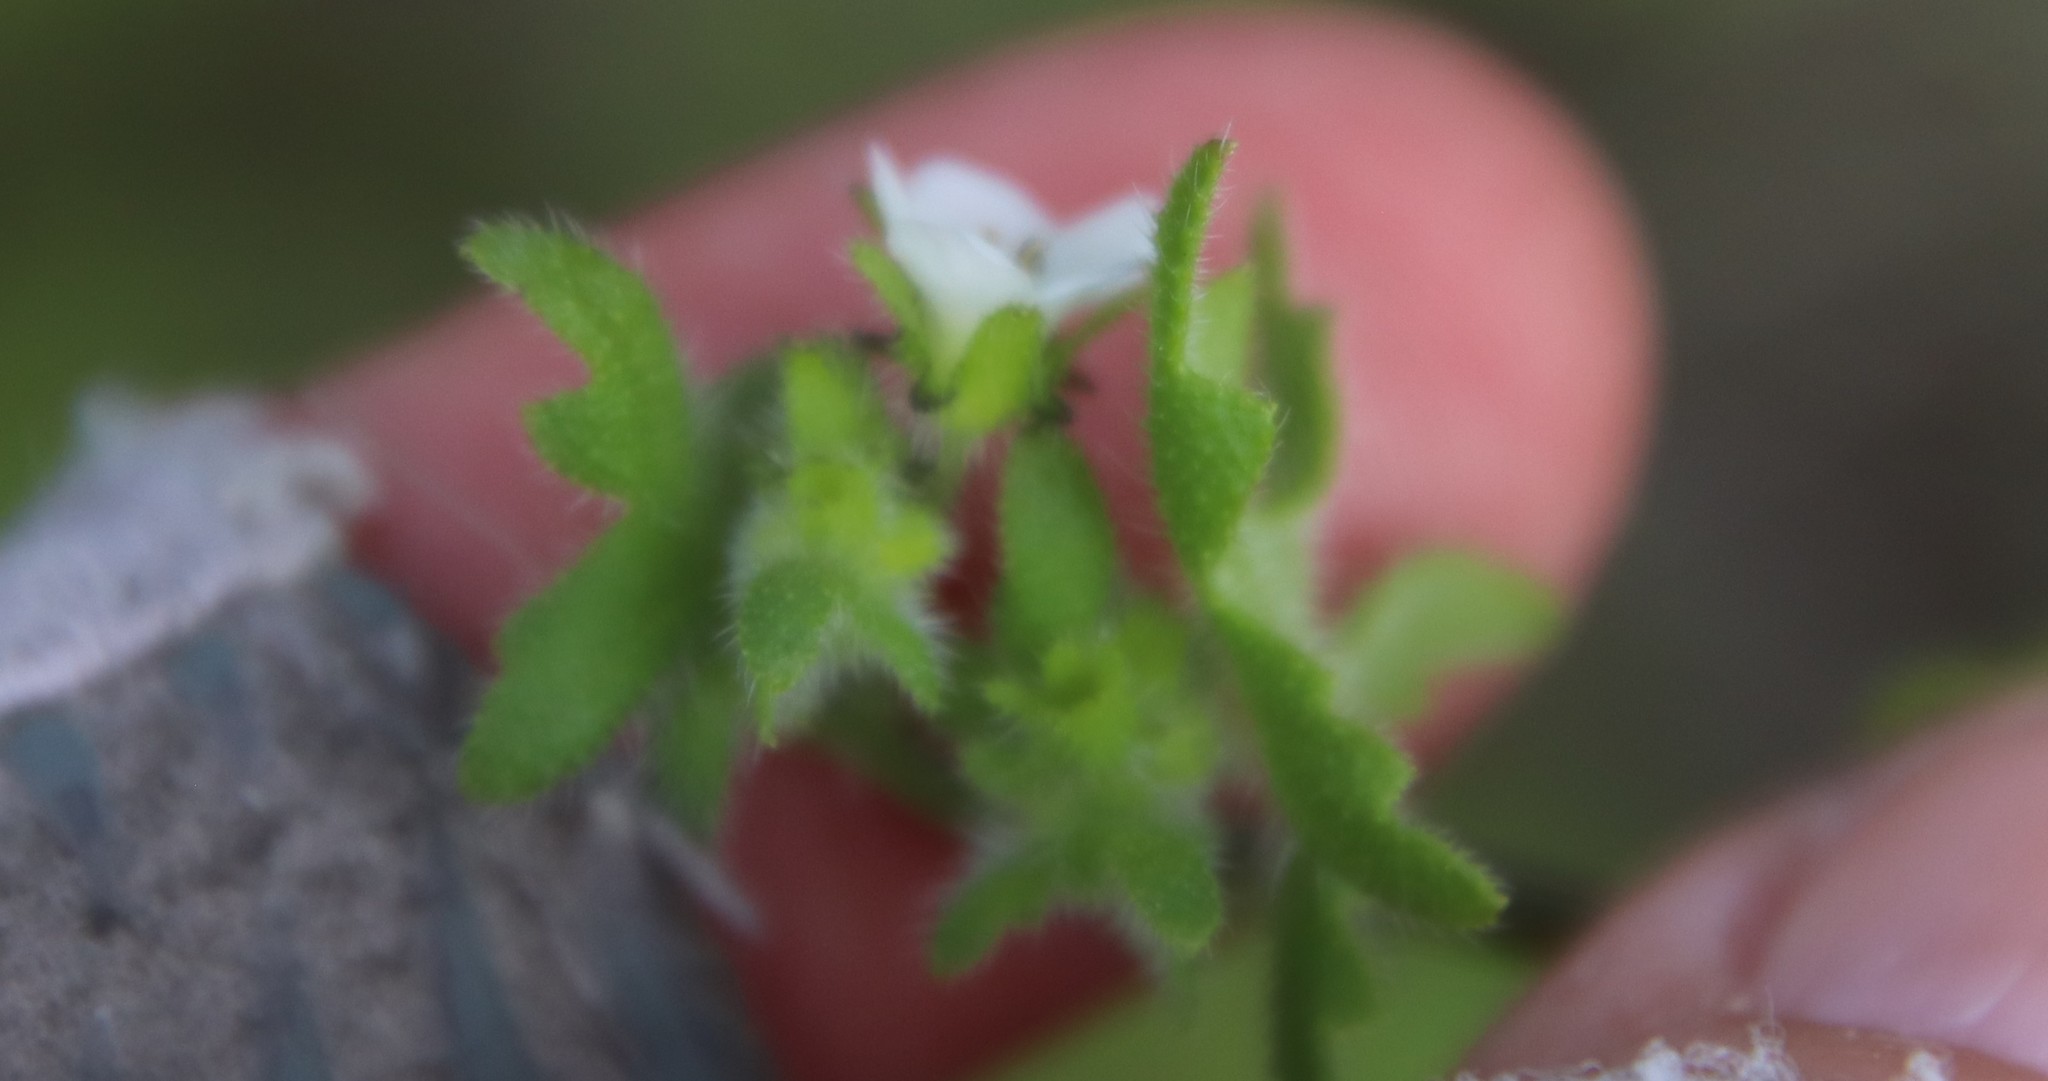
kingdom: Plantae
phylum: Tracheophyta
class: Magnoliopsida
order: Boraginales
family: Hydrophyllaceae
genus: Pholistoma
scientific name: Pholistoma racemosum
